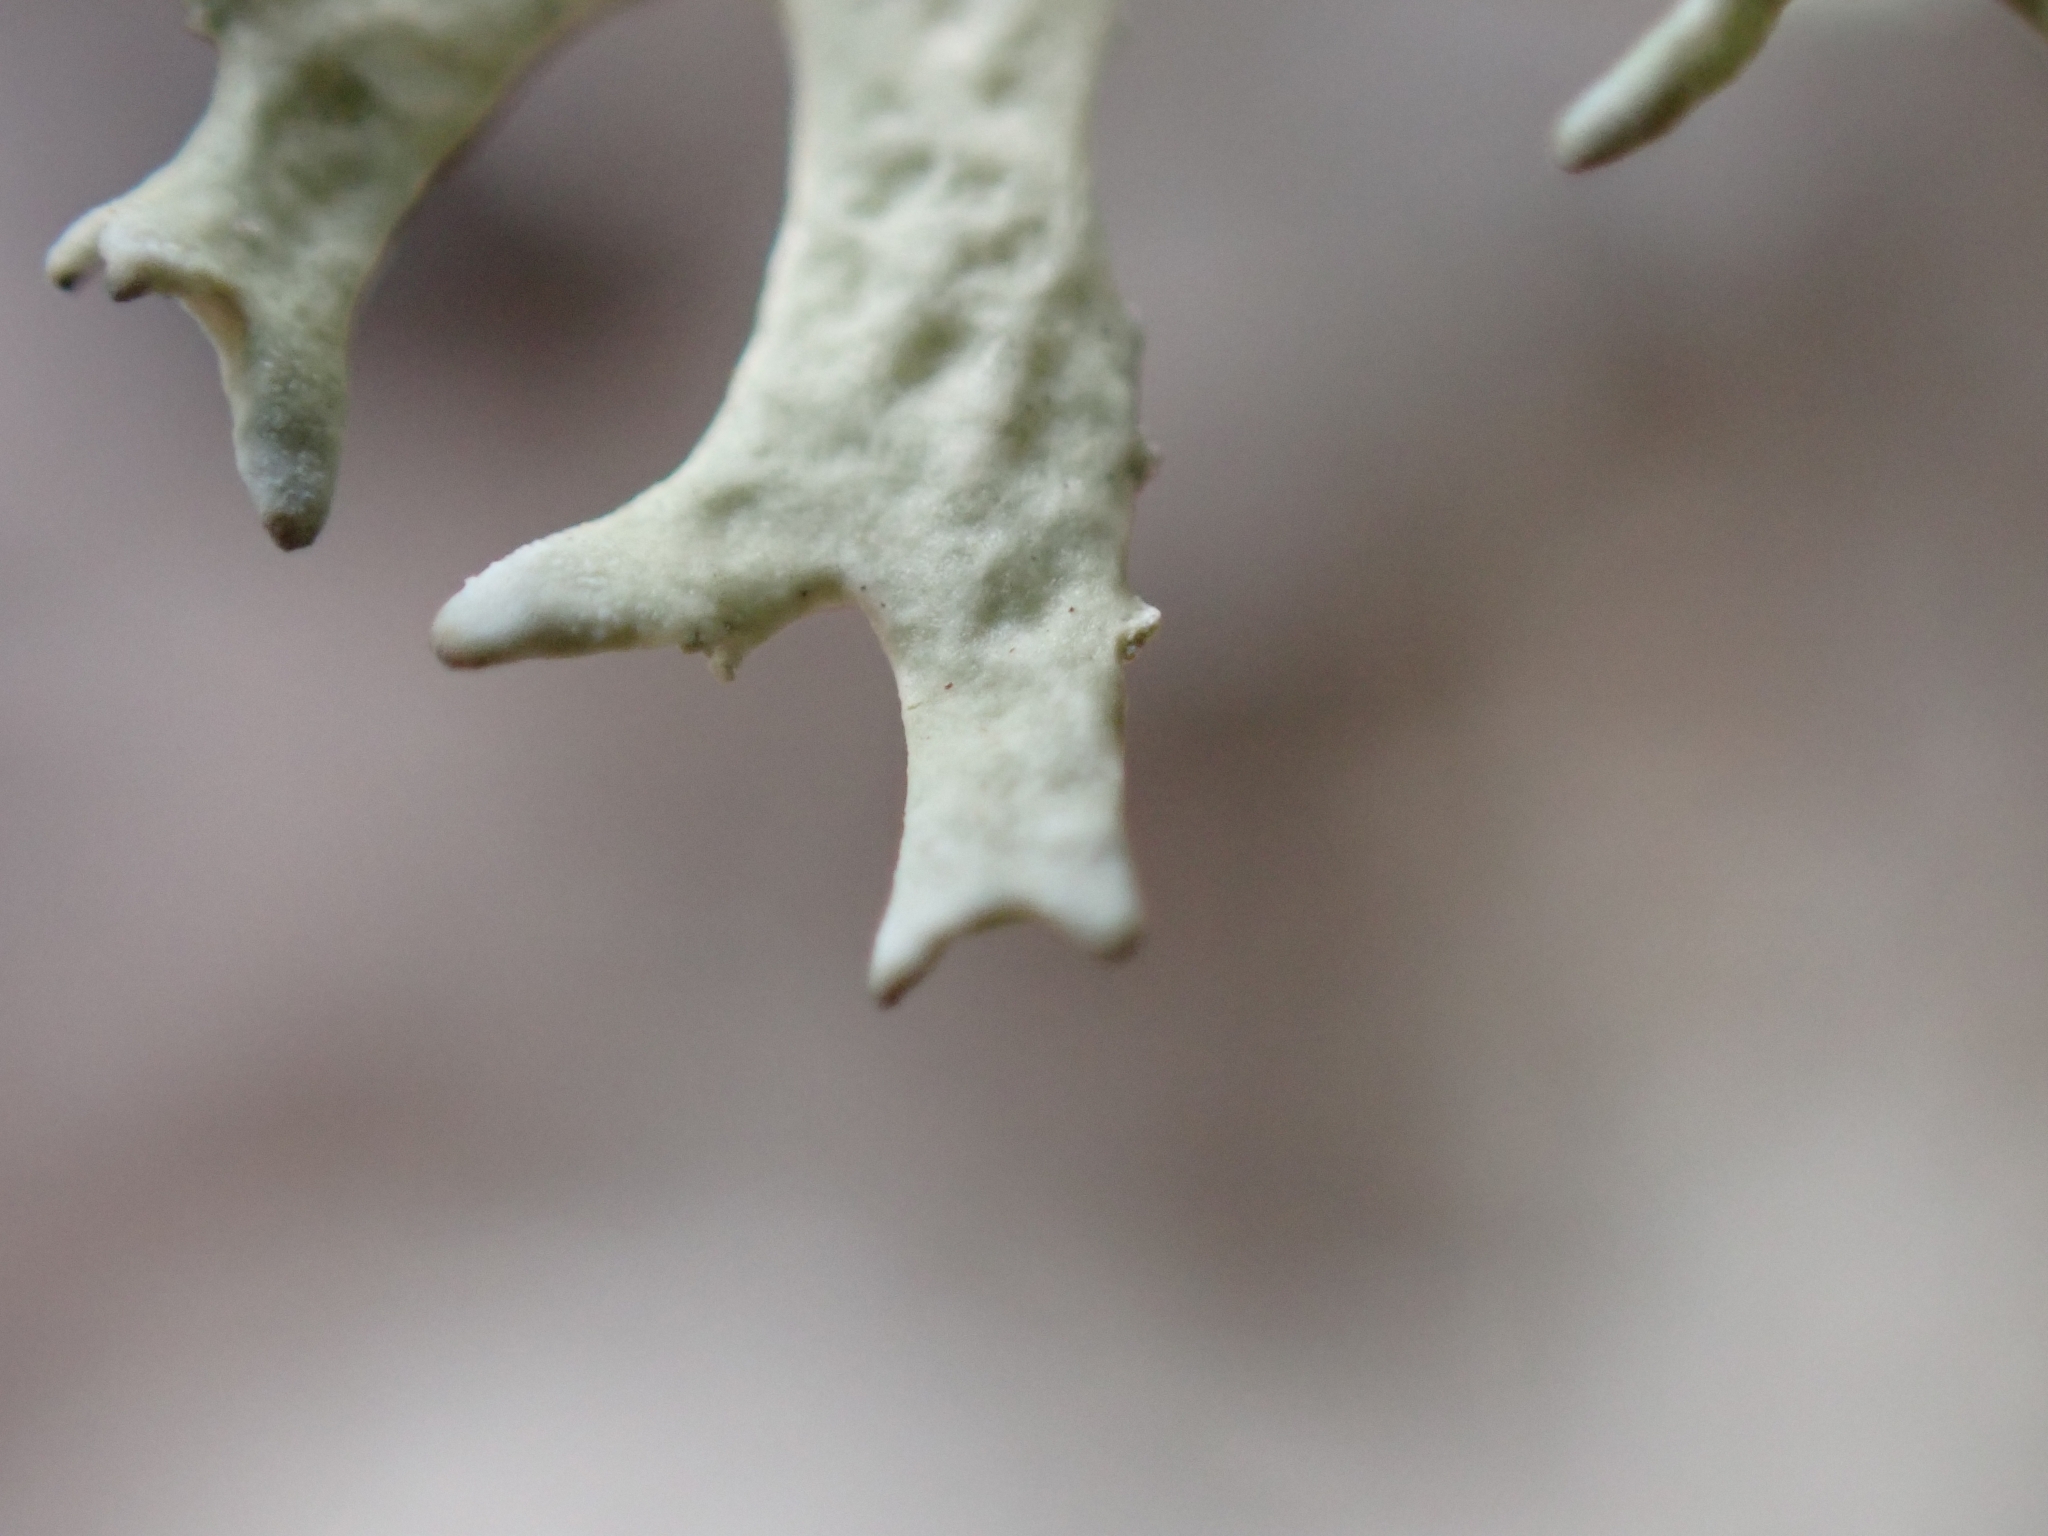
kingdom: Fungi
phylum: Ascomycota
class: Lecanoromycetes
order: Lecanorales
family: Parmeliaceae
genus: Evernia
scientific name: Evernia prunastri
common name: Oak moss
